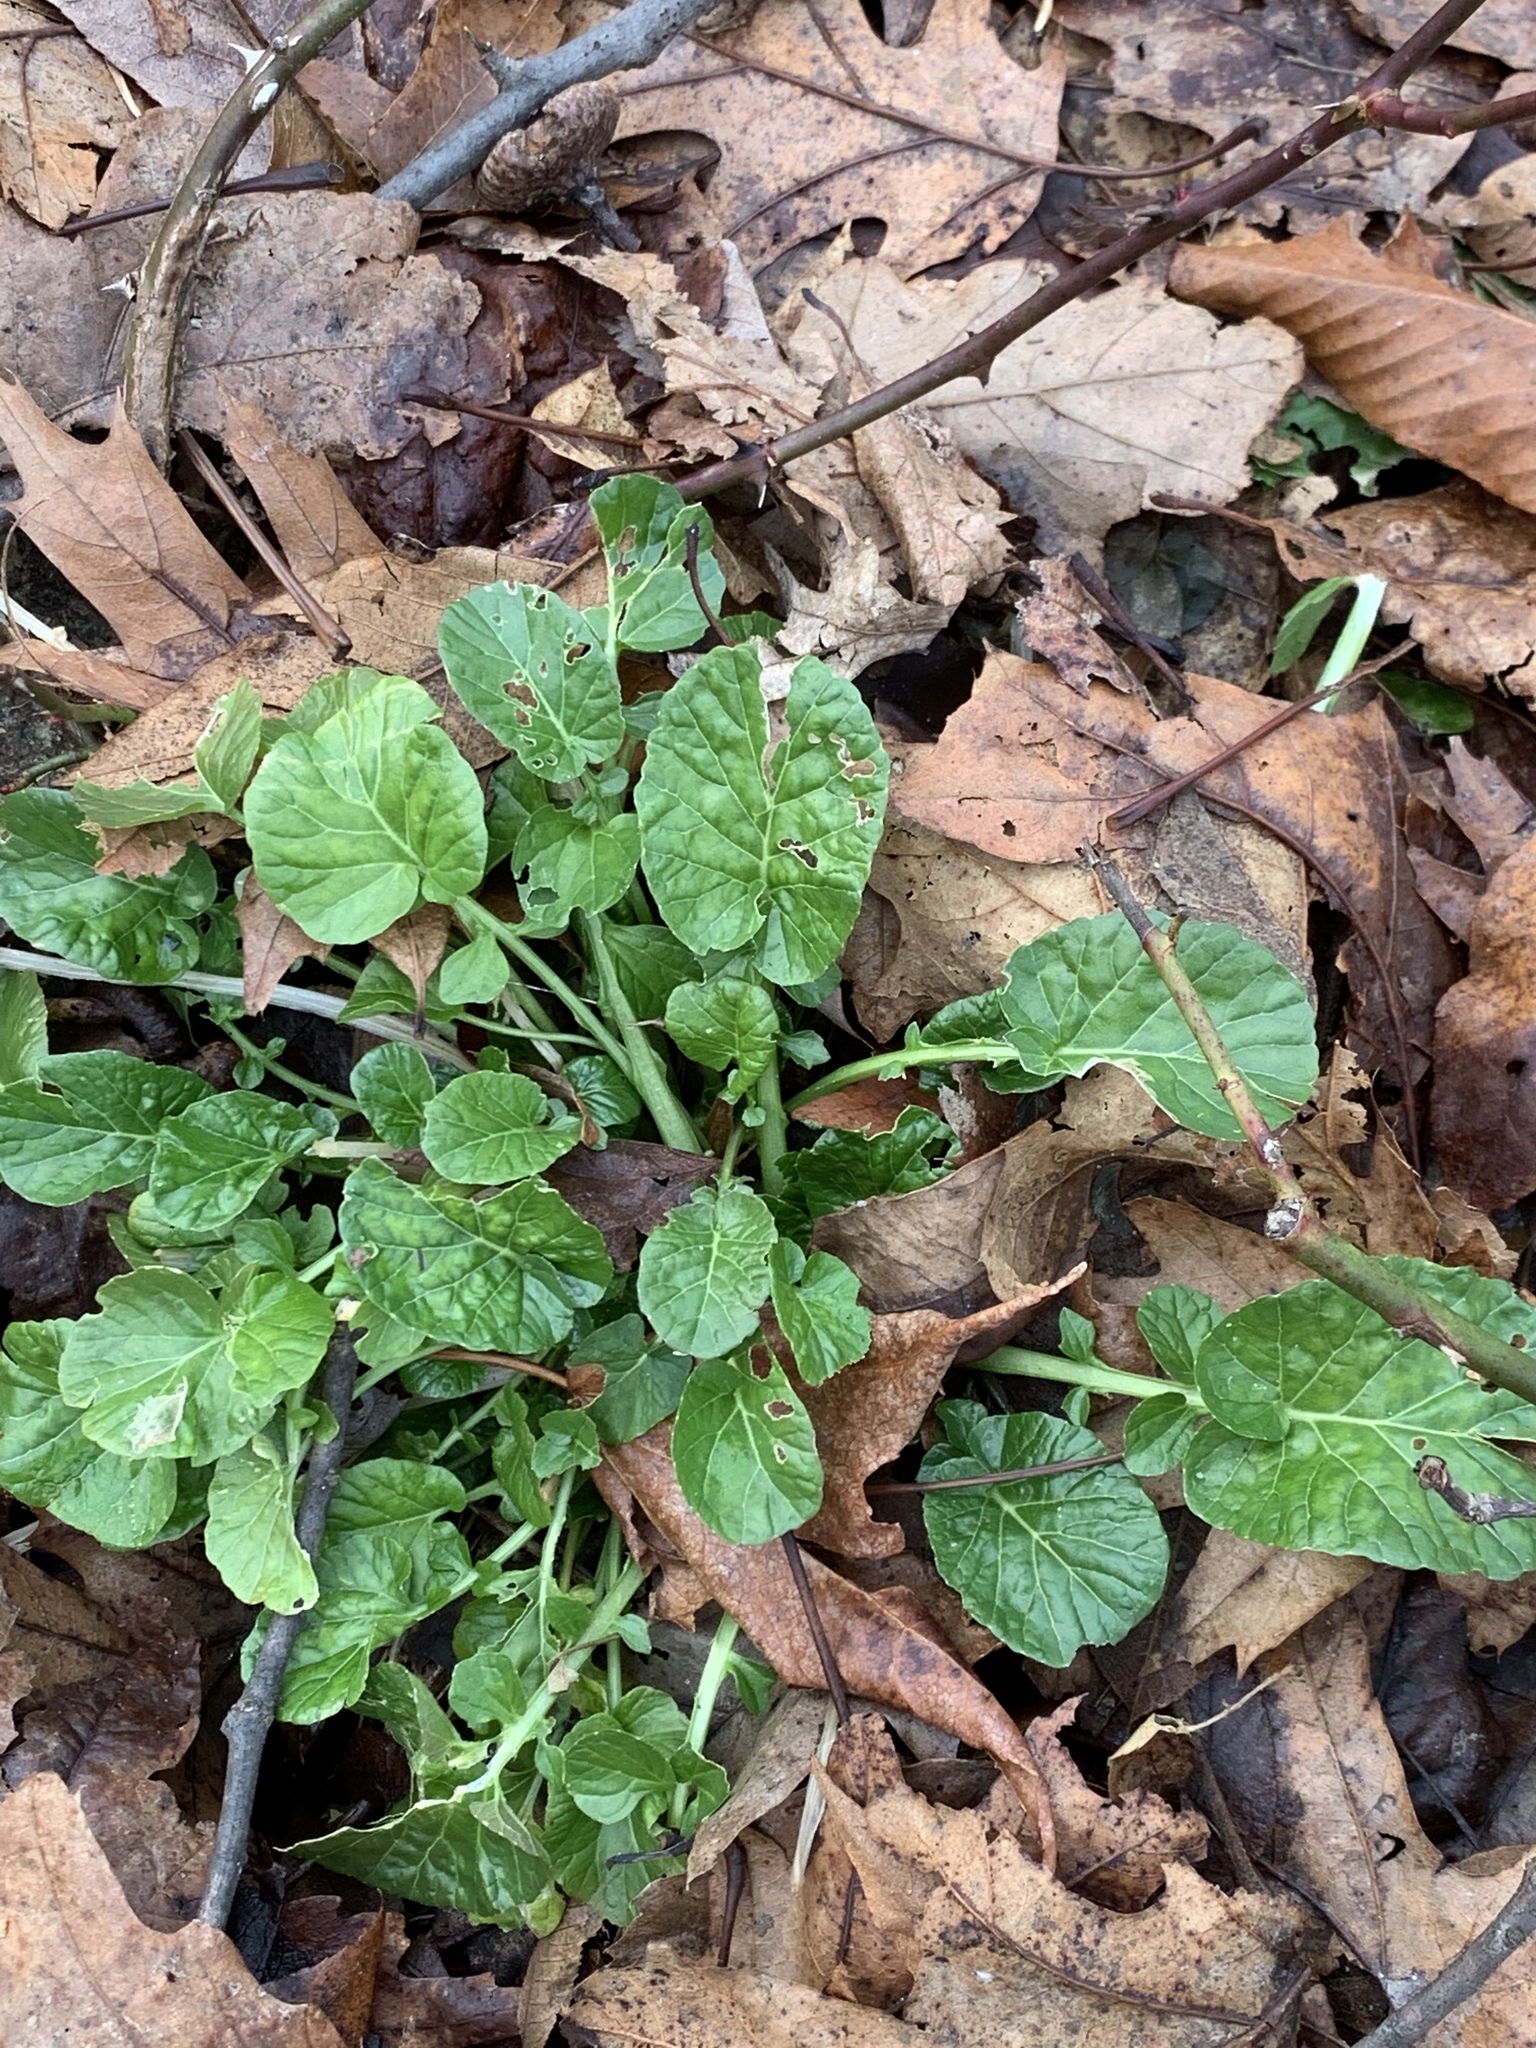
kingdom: Plantae
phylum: Tracheophyta
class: Magnoliopsida
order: Brassicales
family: Brassicaceae
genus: Barbarea
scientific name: Barbarea vulgaris
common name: Cressy-greens
